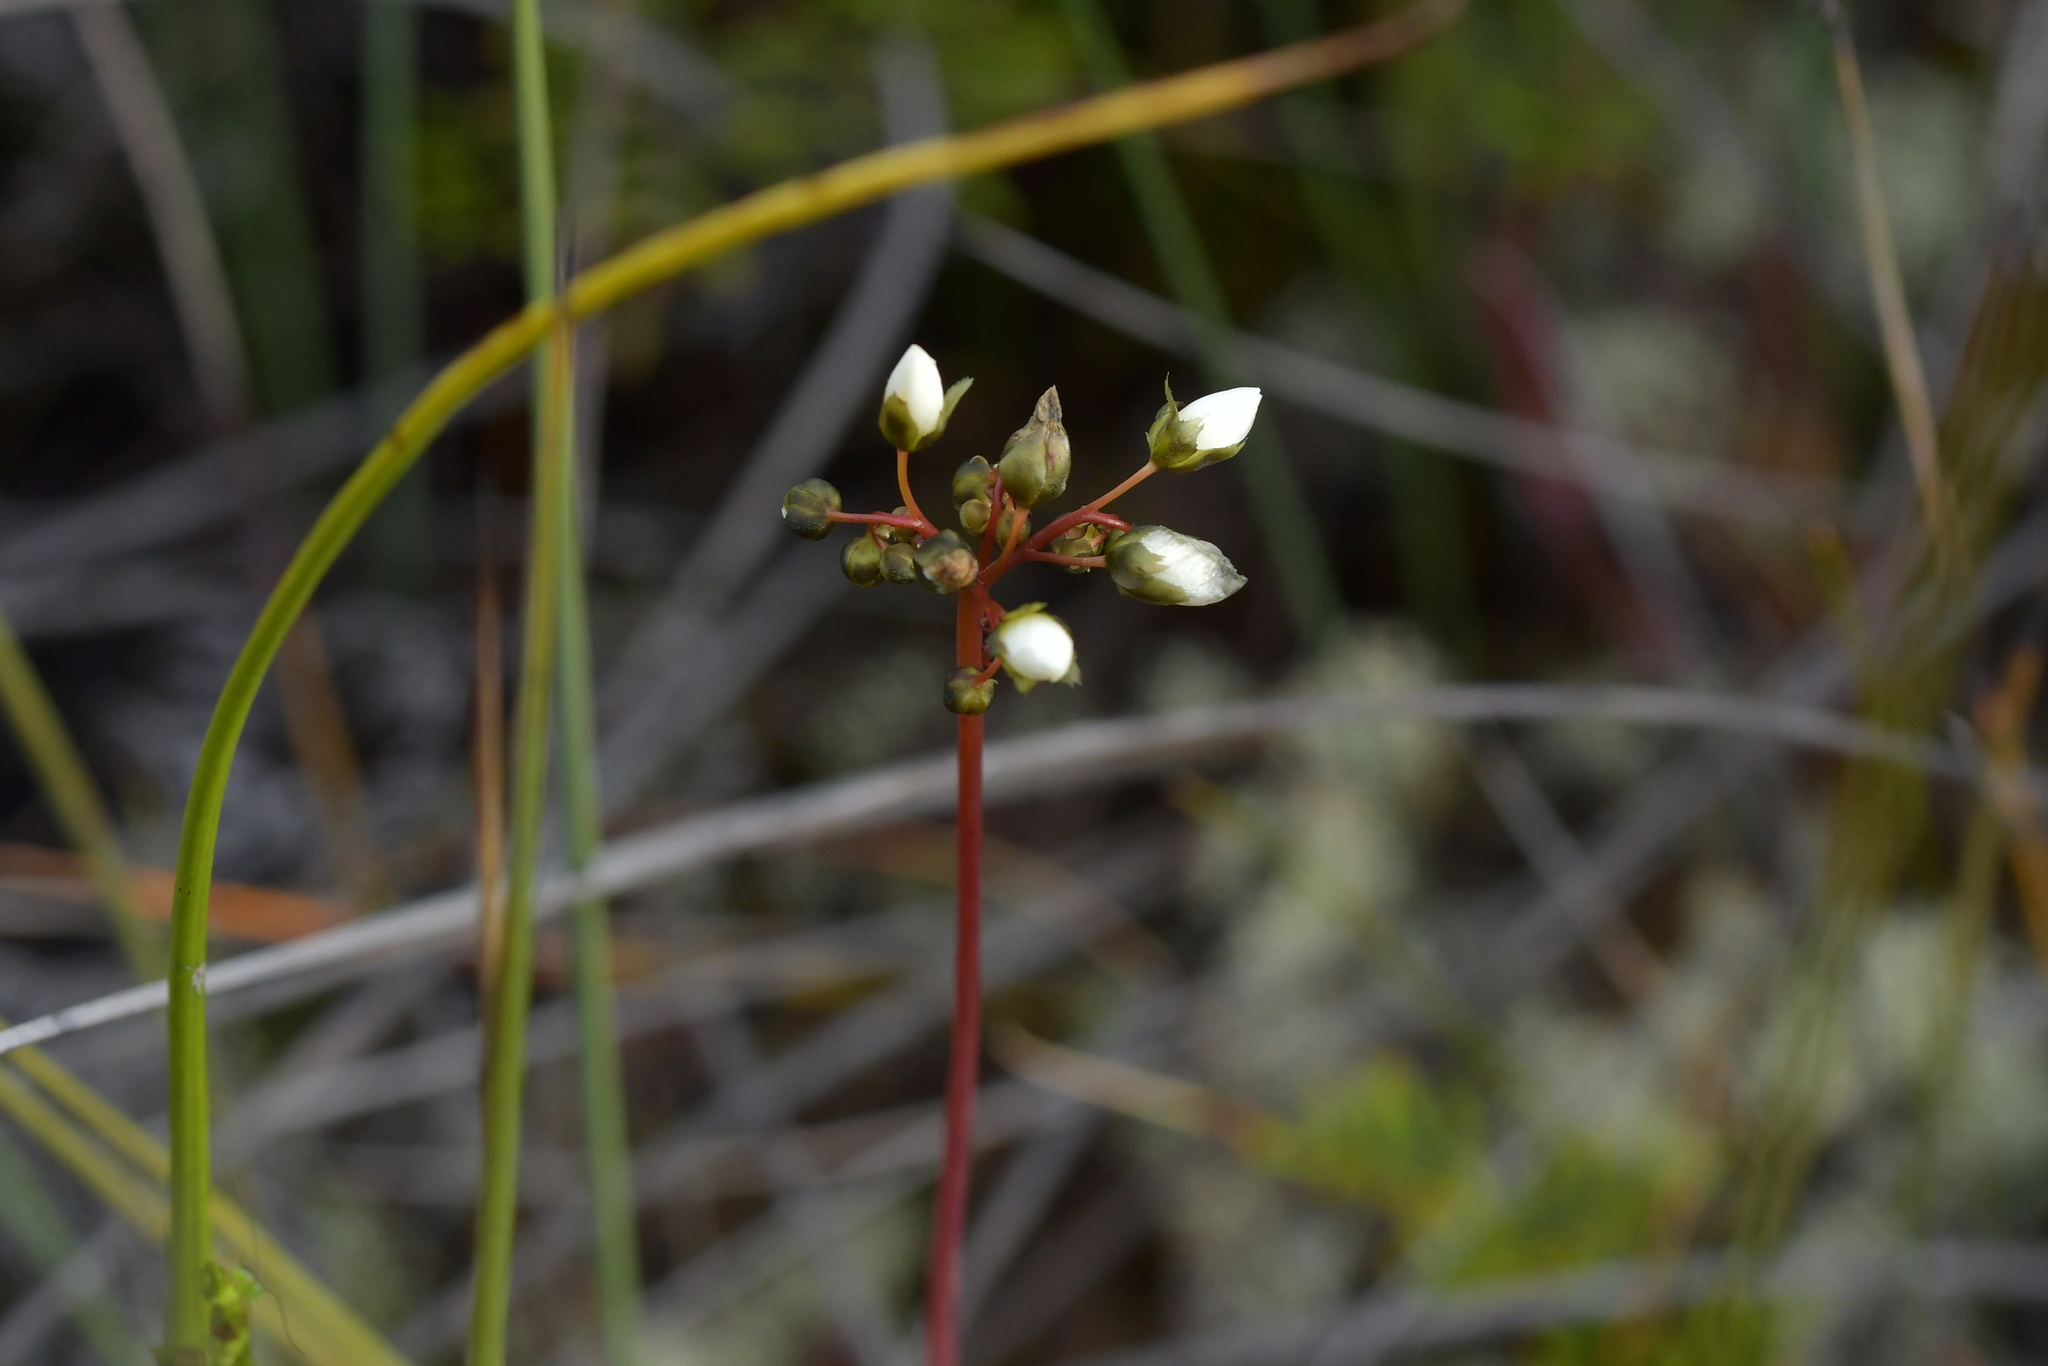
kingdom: Plantae
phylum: Tracheophyta
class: Magnoliopsida
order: Caryophyllales
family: Droseraceae
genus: Drosera
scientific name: Drosera binata
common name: Forked sundew
